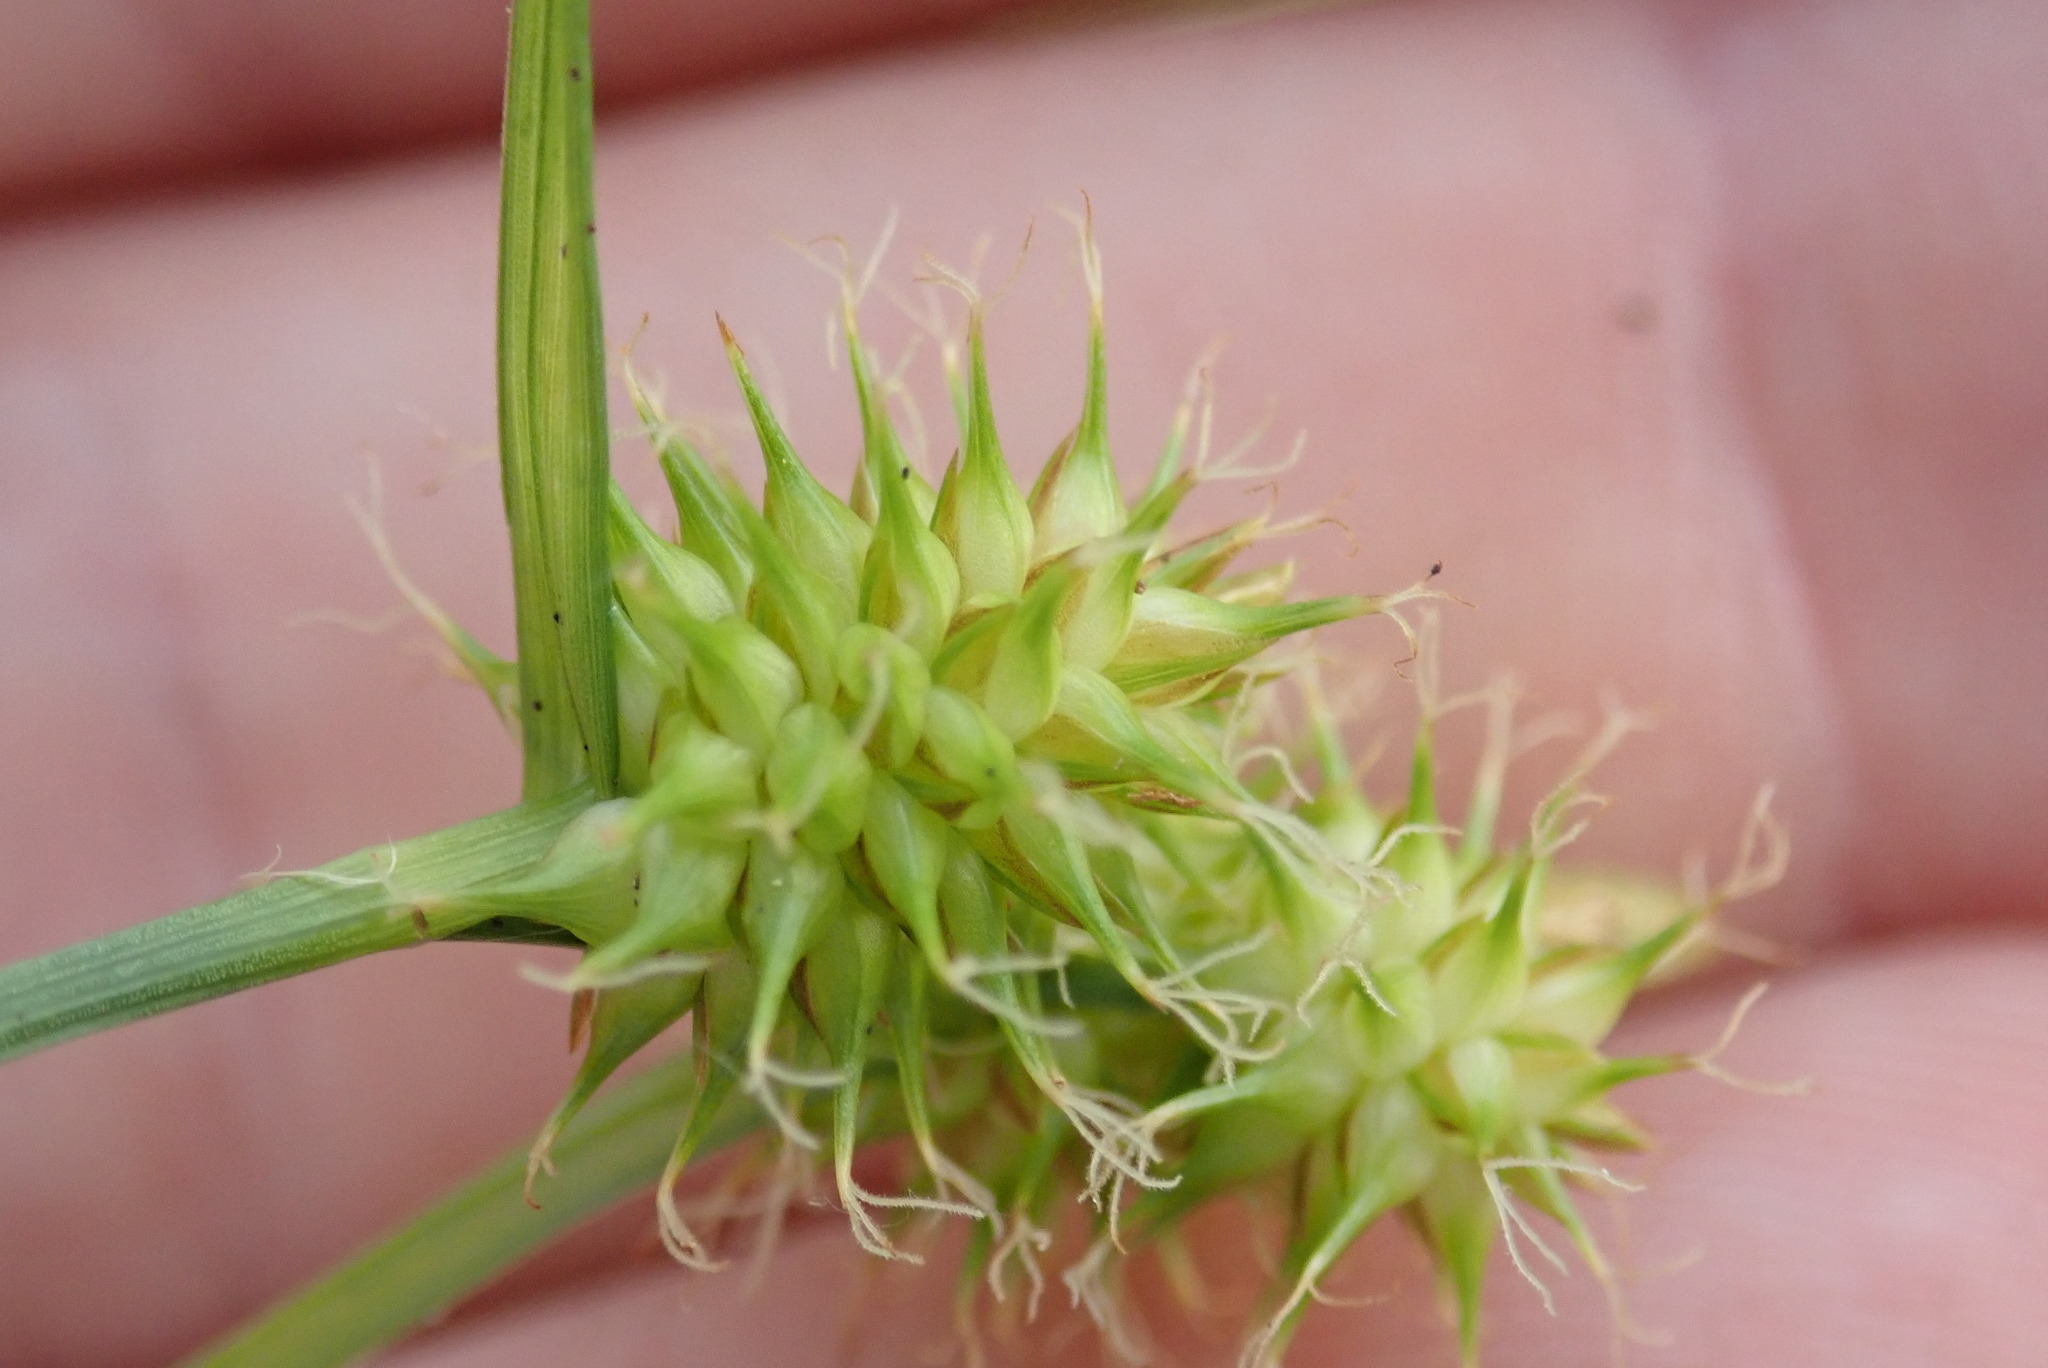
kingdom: Plantae
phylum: Tracheophyta
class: Liliopsida
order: Poales
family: Cyperaceae
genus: Carex
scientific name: Carex flava
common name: Large yellow-sedge
